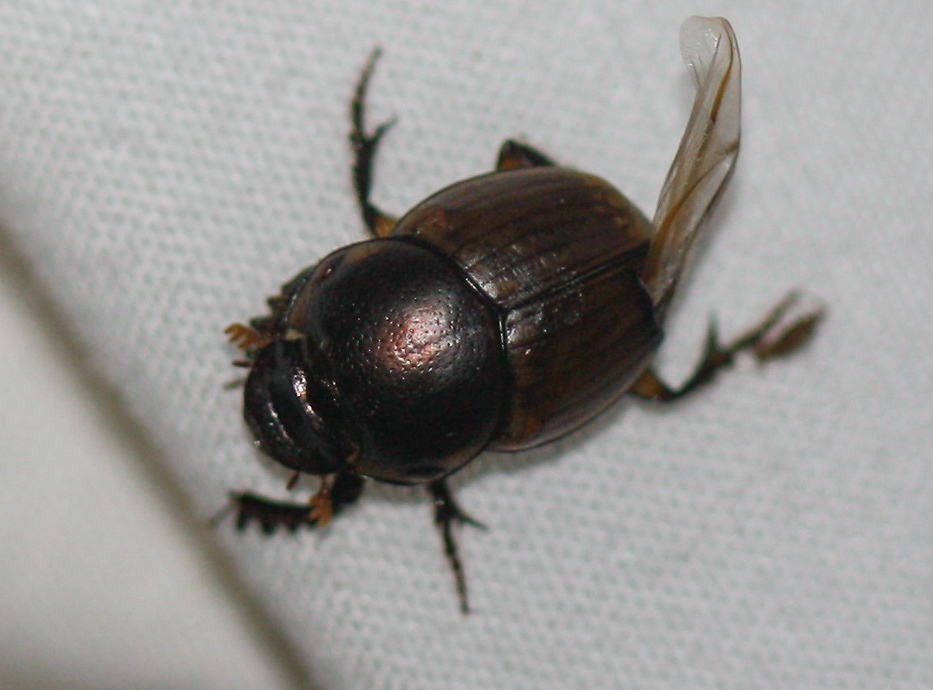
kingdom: Animalia
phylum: Arthropoda
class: Insecta
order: Coleoptera
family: Scarabaeidae
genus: Digitonthophagus
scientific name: Digitonthophagus gazella
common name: Brown dung beetle
